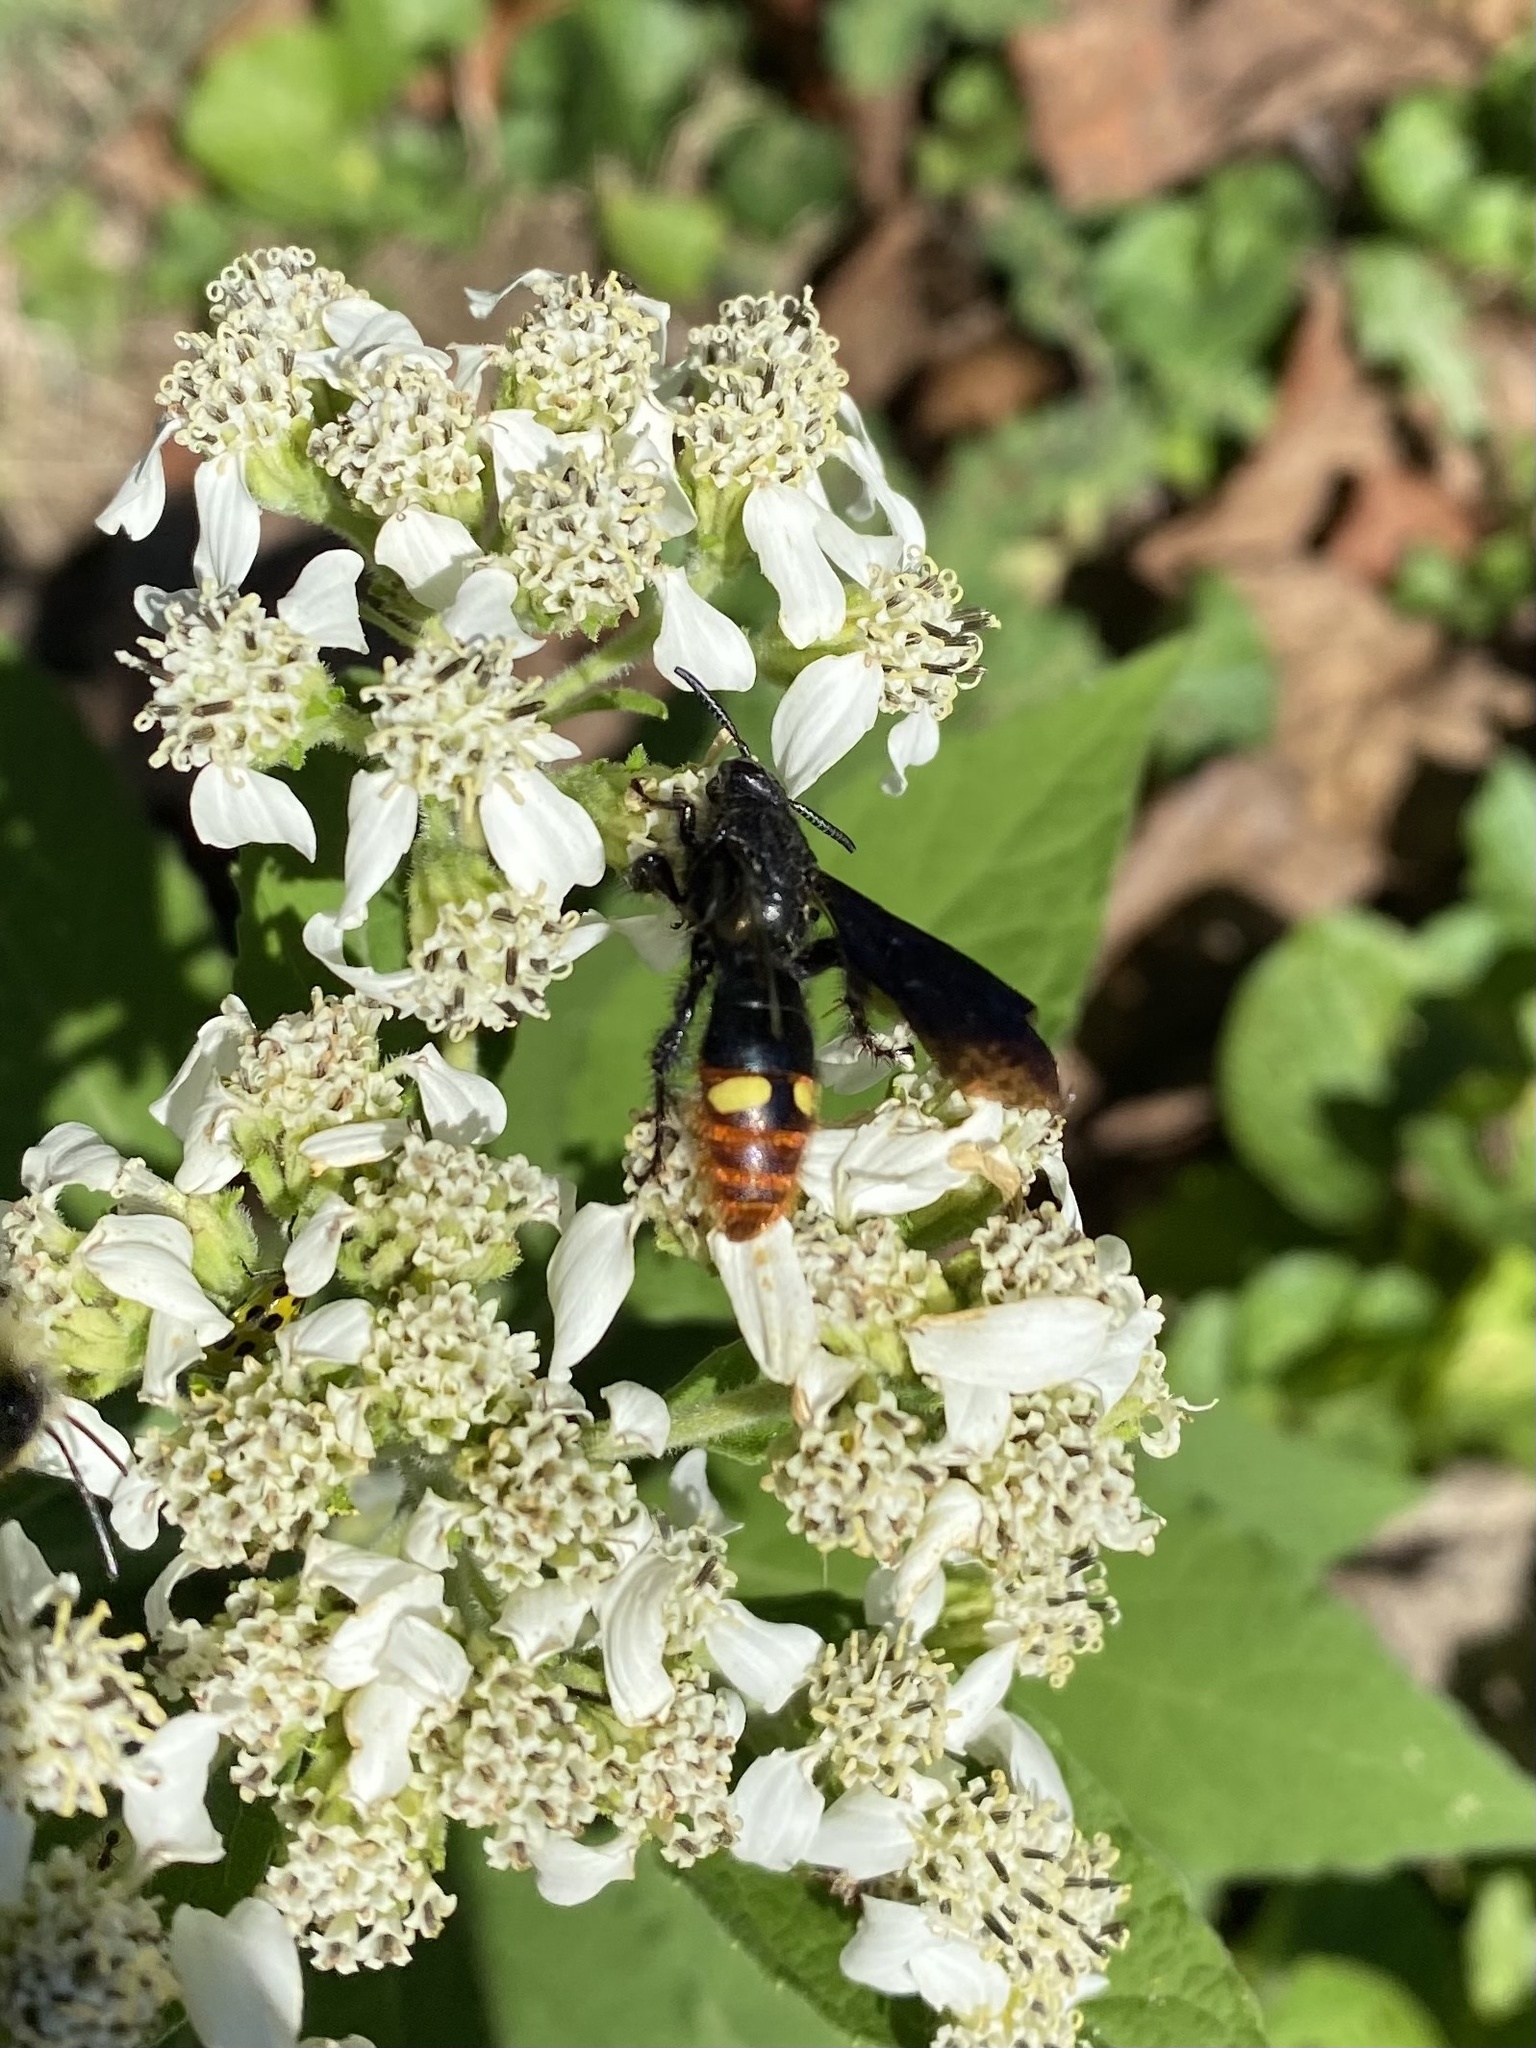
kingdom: Animalia
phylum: Arthropoda
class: Insecta
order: Hymenoptera
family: Scoliidae
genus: Scolia
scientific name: Scolia dubia
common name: Blue-winged scoliid wasp
